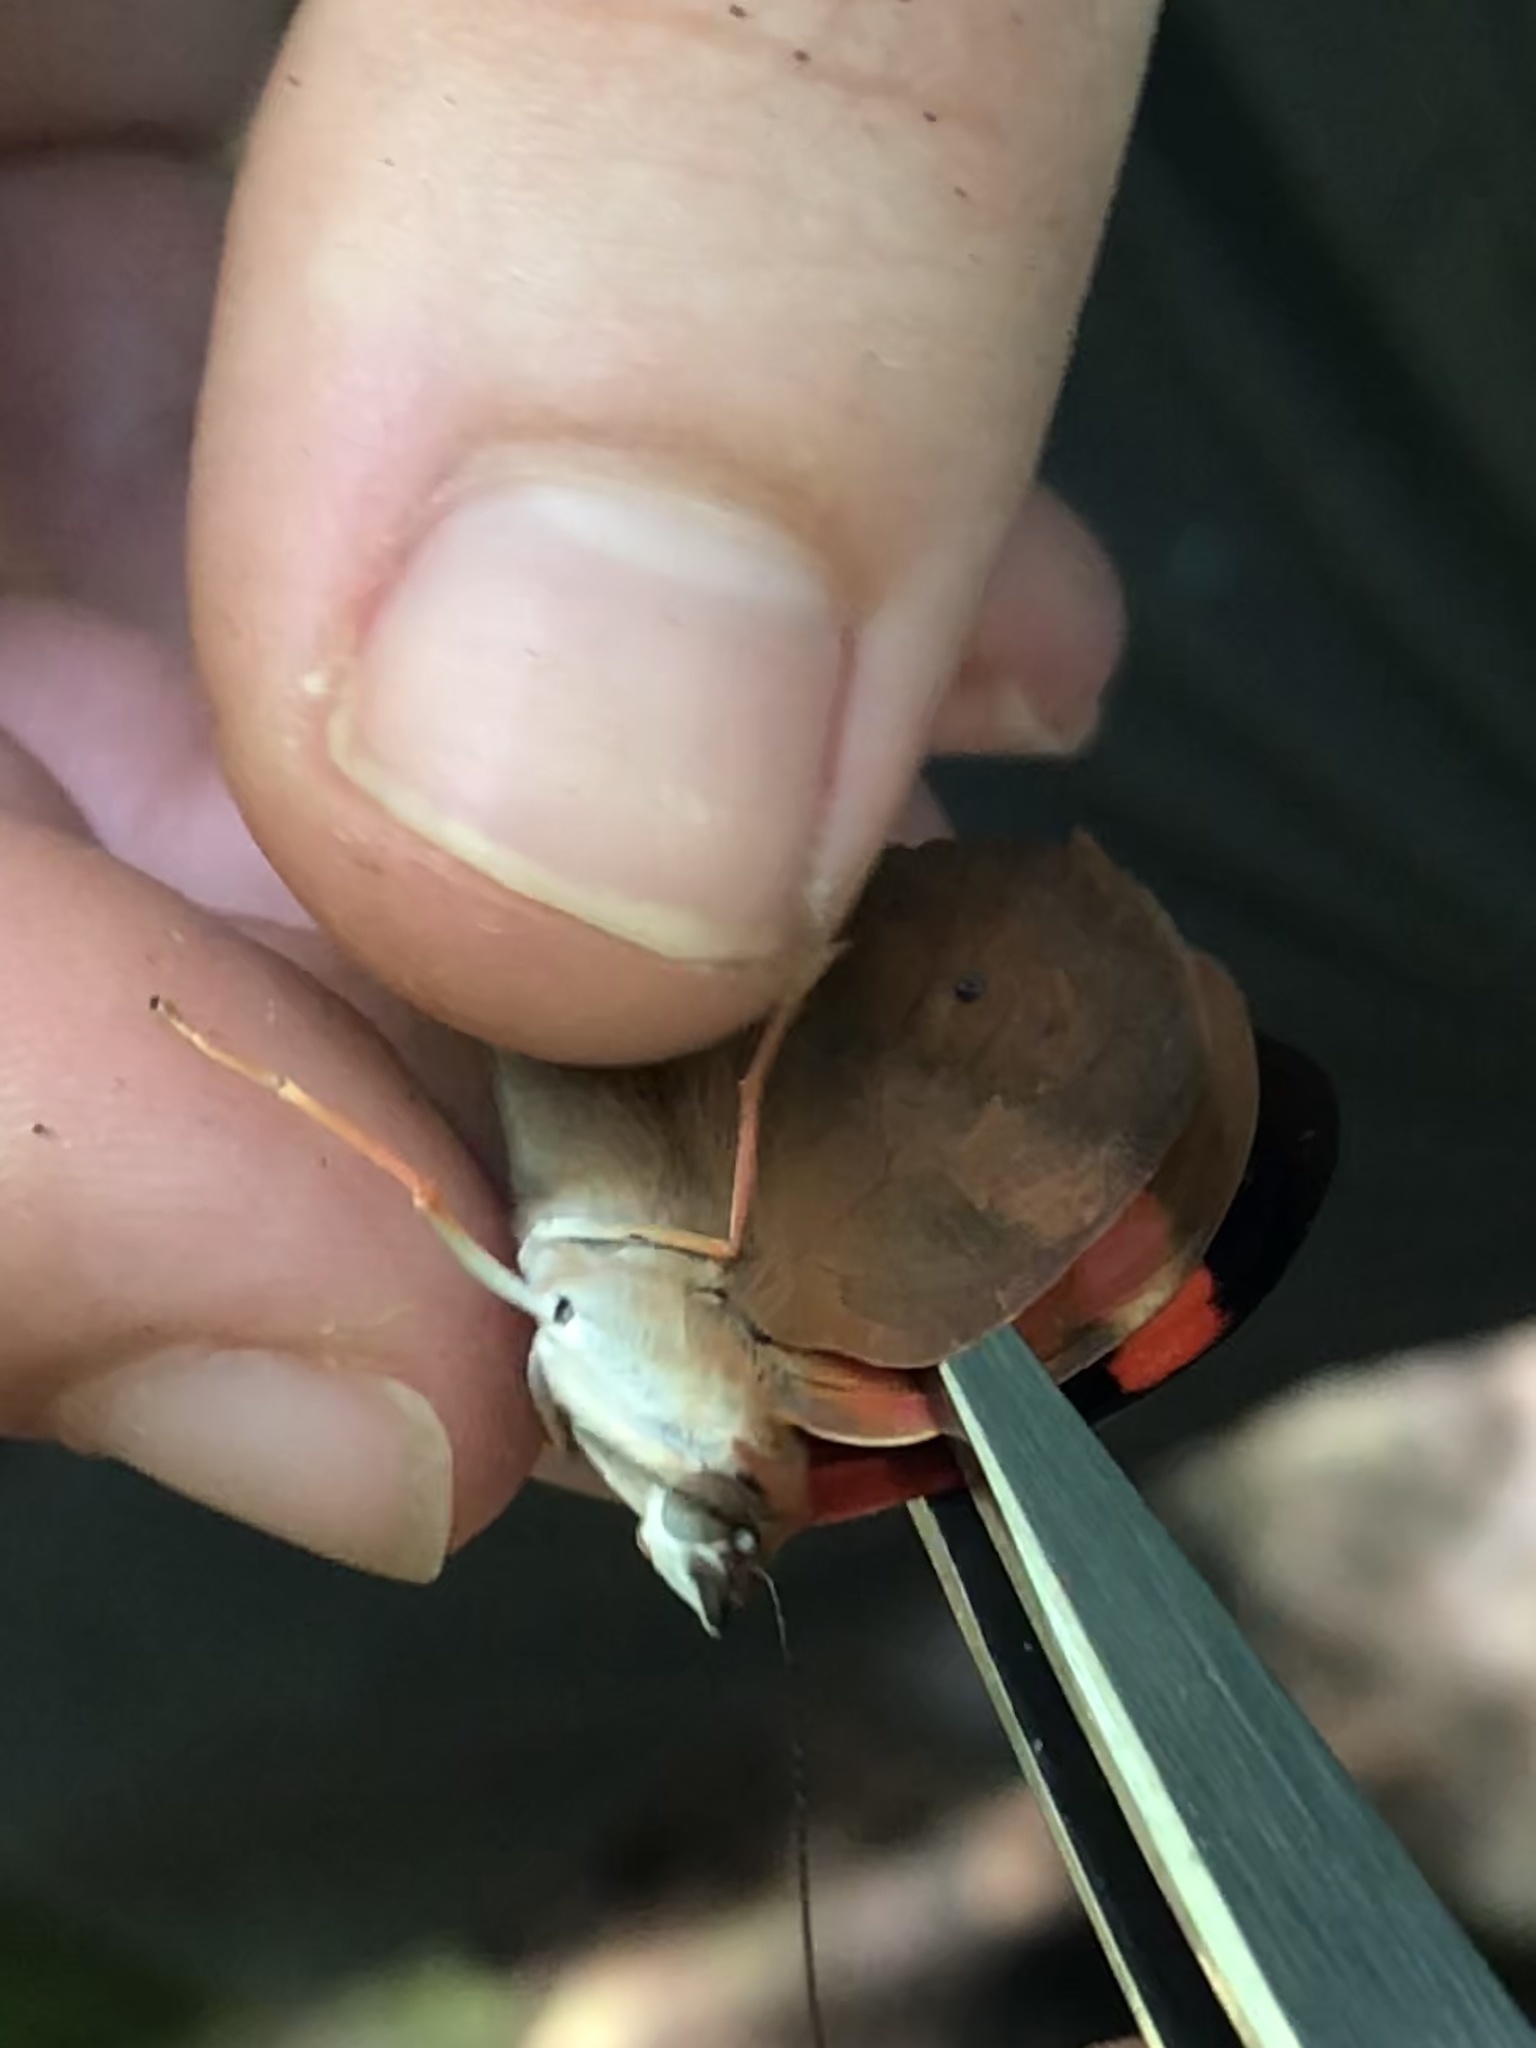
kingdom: Animalia
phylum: Arthropoda
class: Insecta
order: Lepidoptera
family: Nymphalidae
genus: Temenis
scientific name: Temenis pulchra
